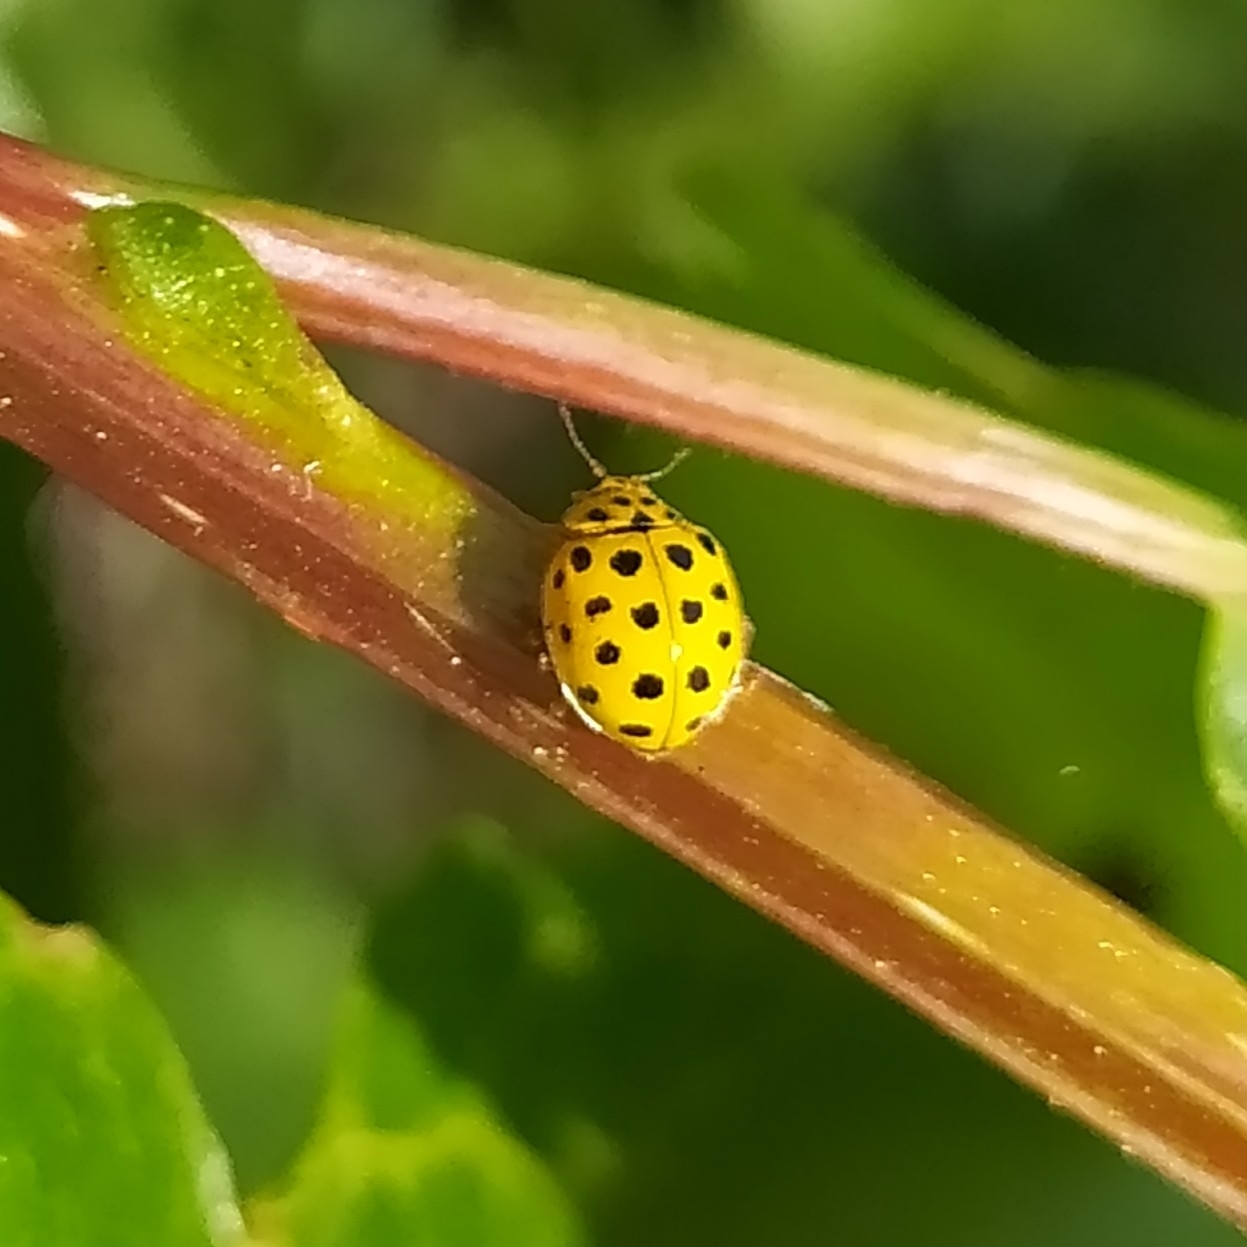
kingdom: Animalia
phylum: Arthropoda
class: Insecta
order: Coleoptera
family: Coccinellidae
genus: Psyllobora
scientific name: Psyllobora vigintiduopunctata
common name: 22-spot ladybird
